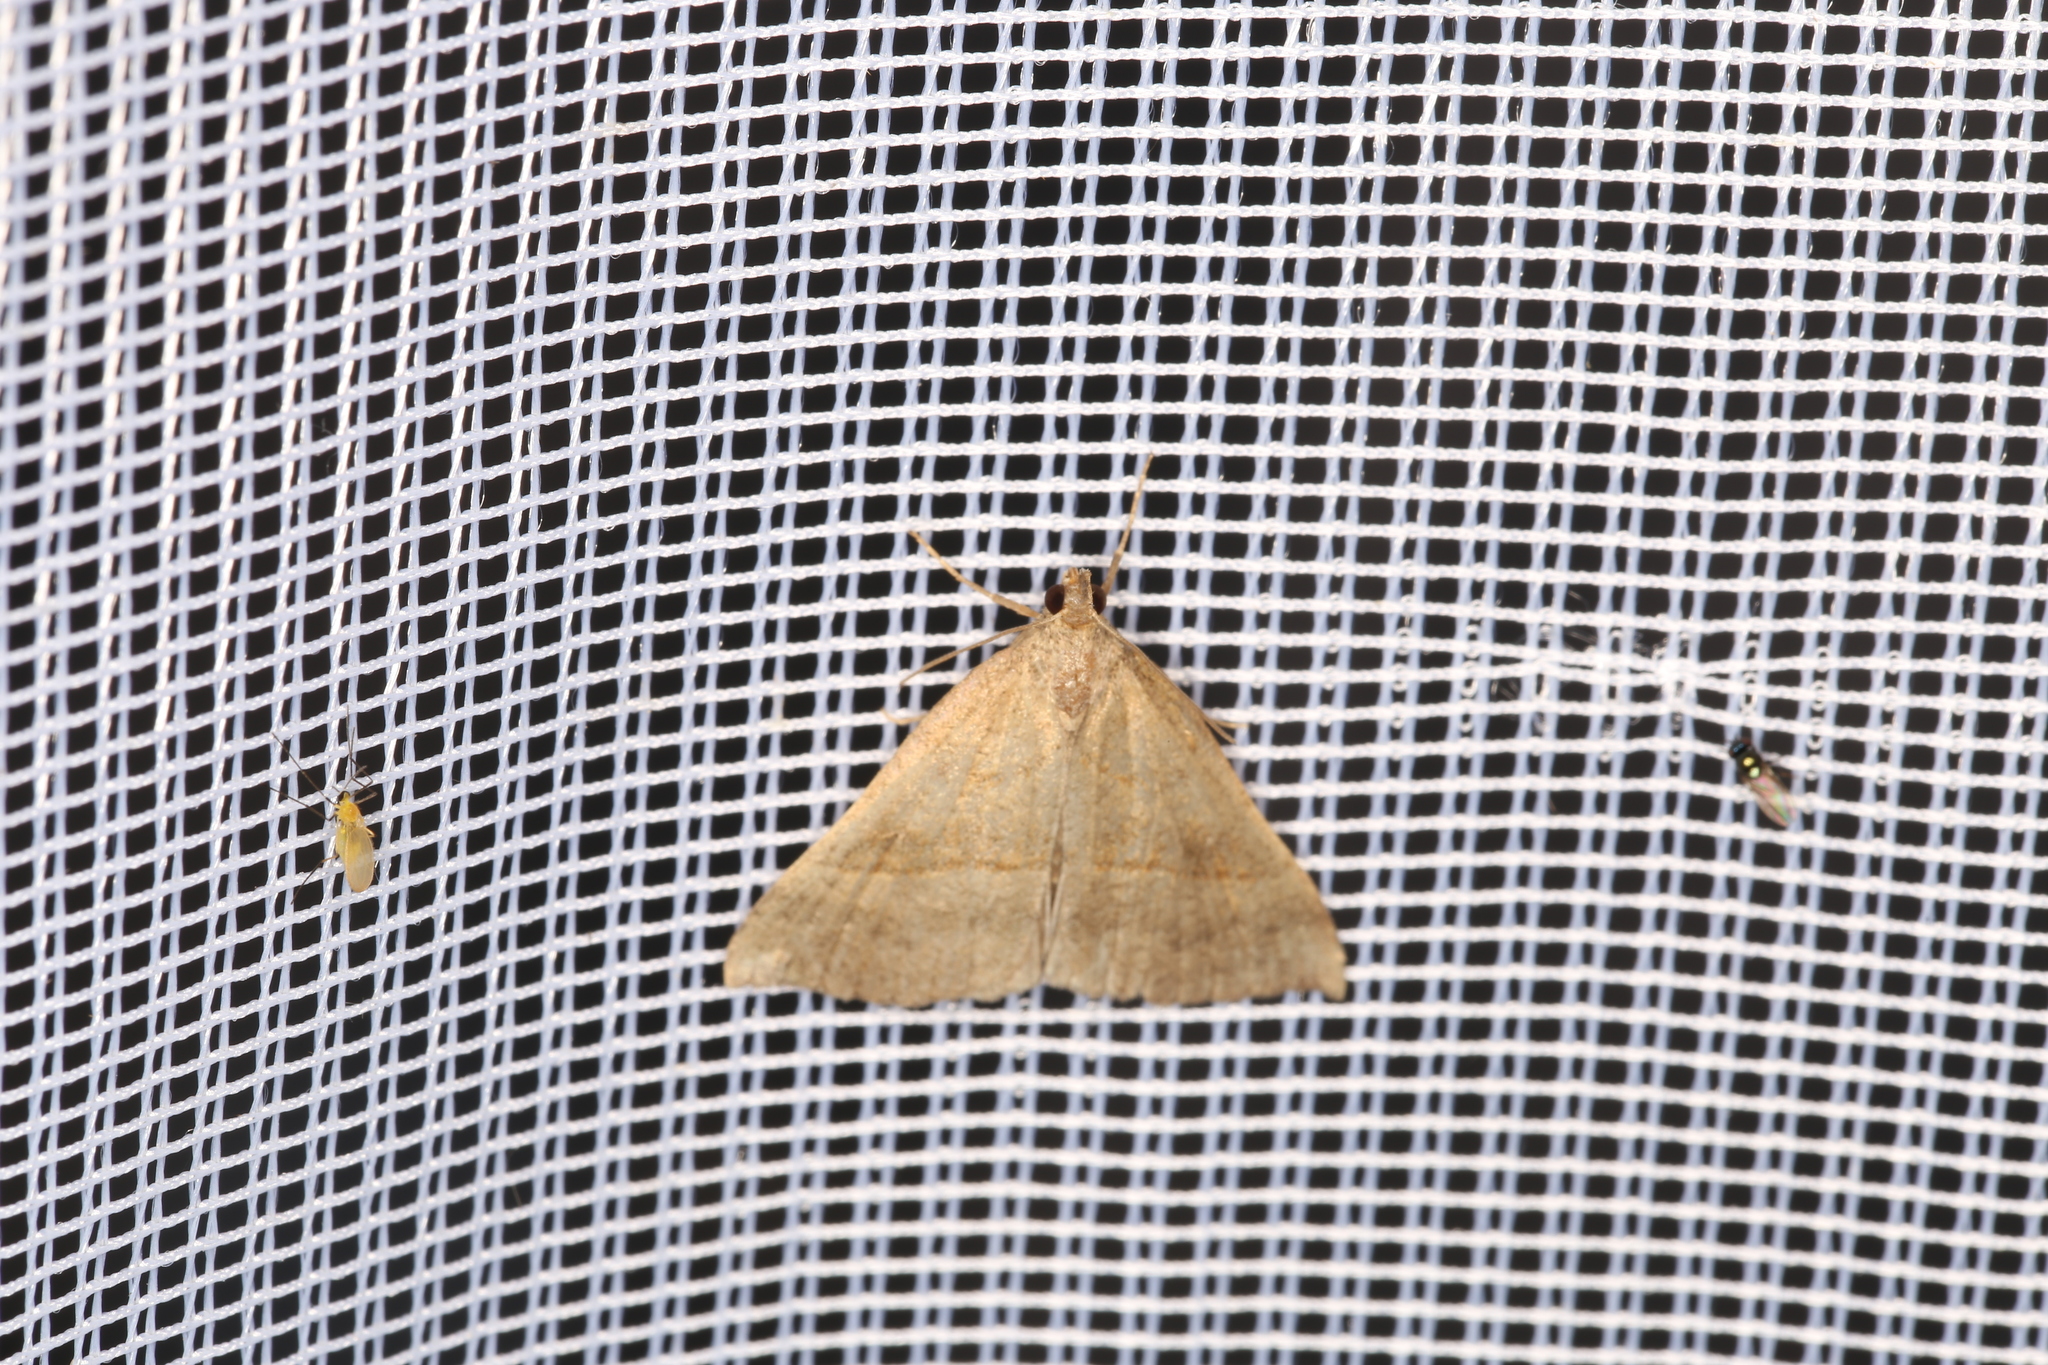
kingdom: Animalia
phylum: Arthropoda
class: Insecta
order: Lepidoptera
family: Erebidae
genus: Hypena
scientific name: Hypena proboscidalis
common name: Snout
